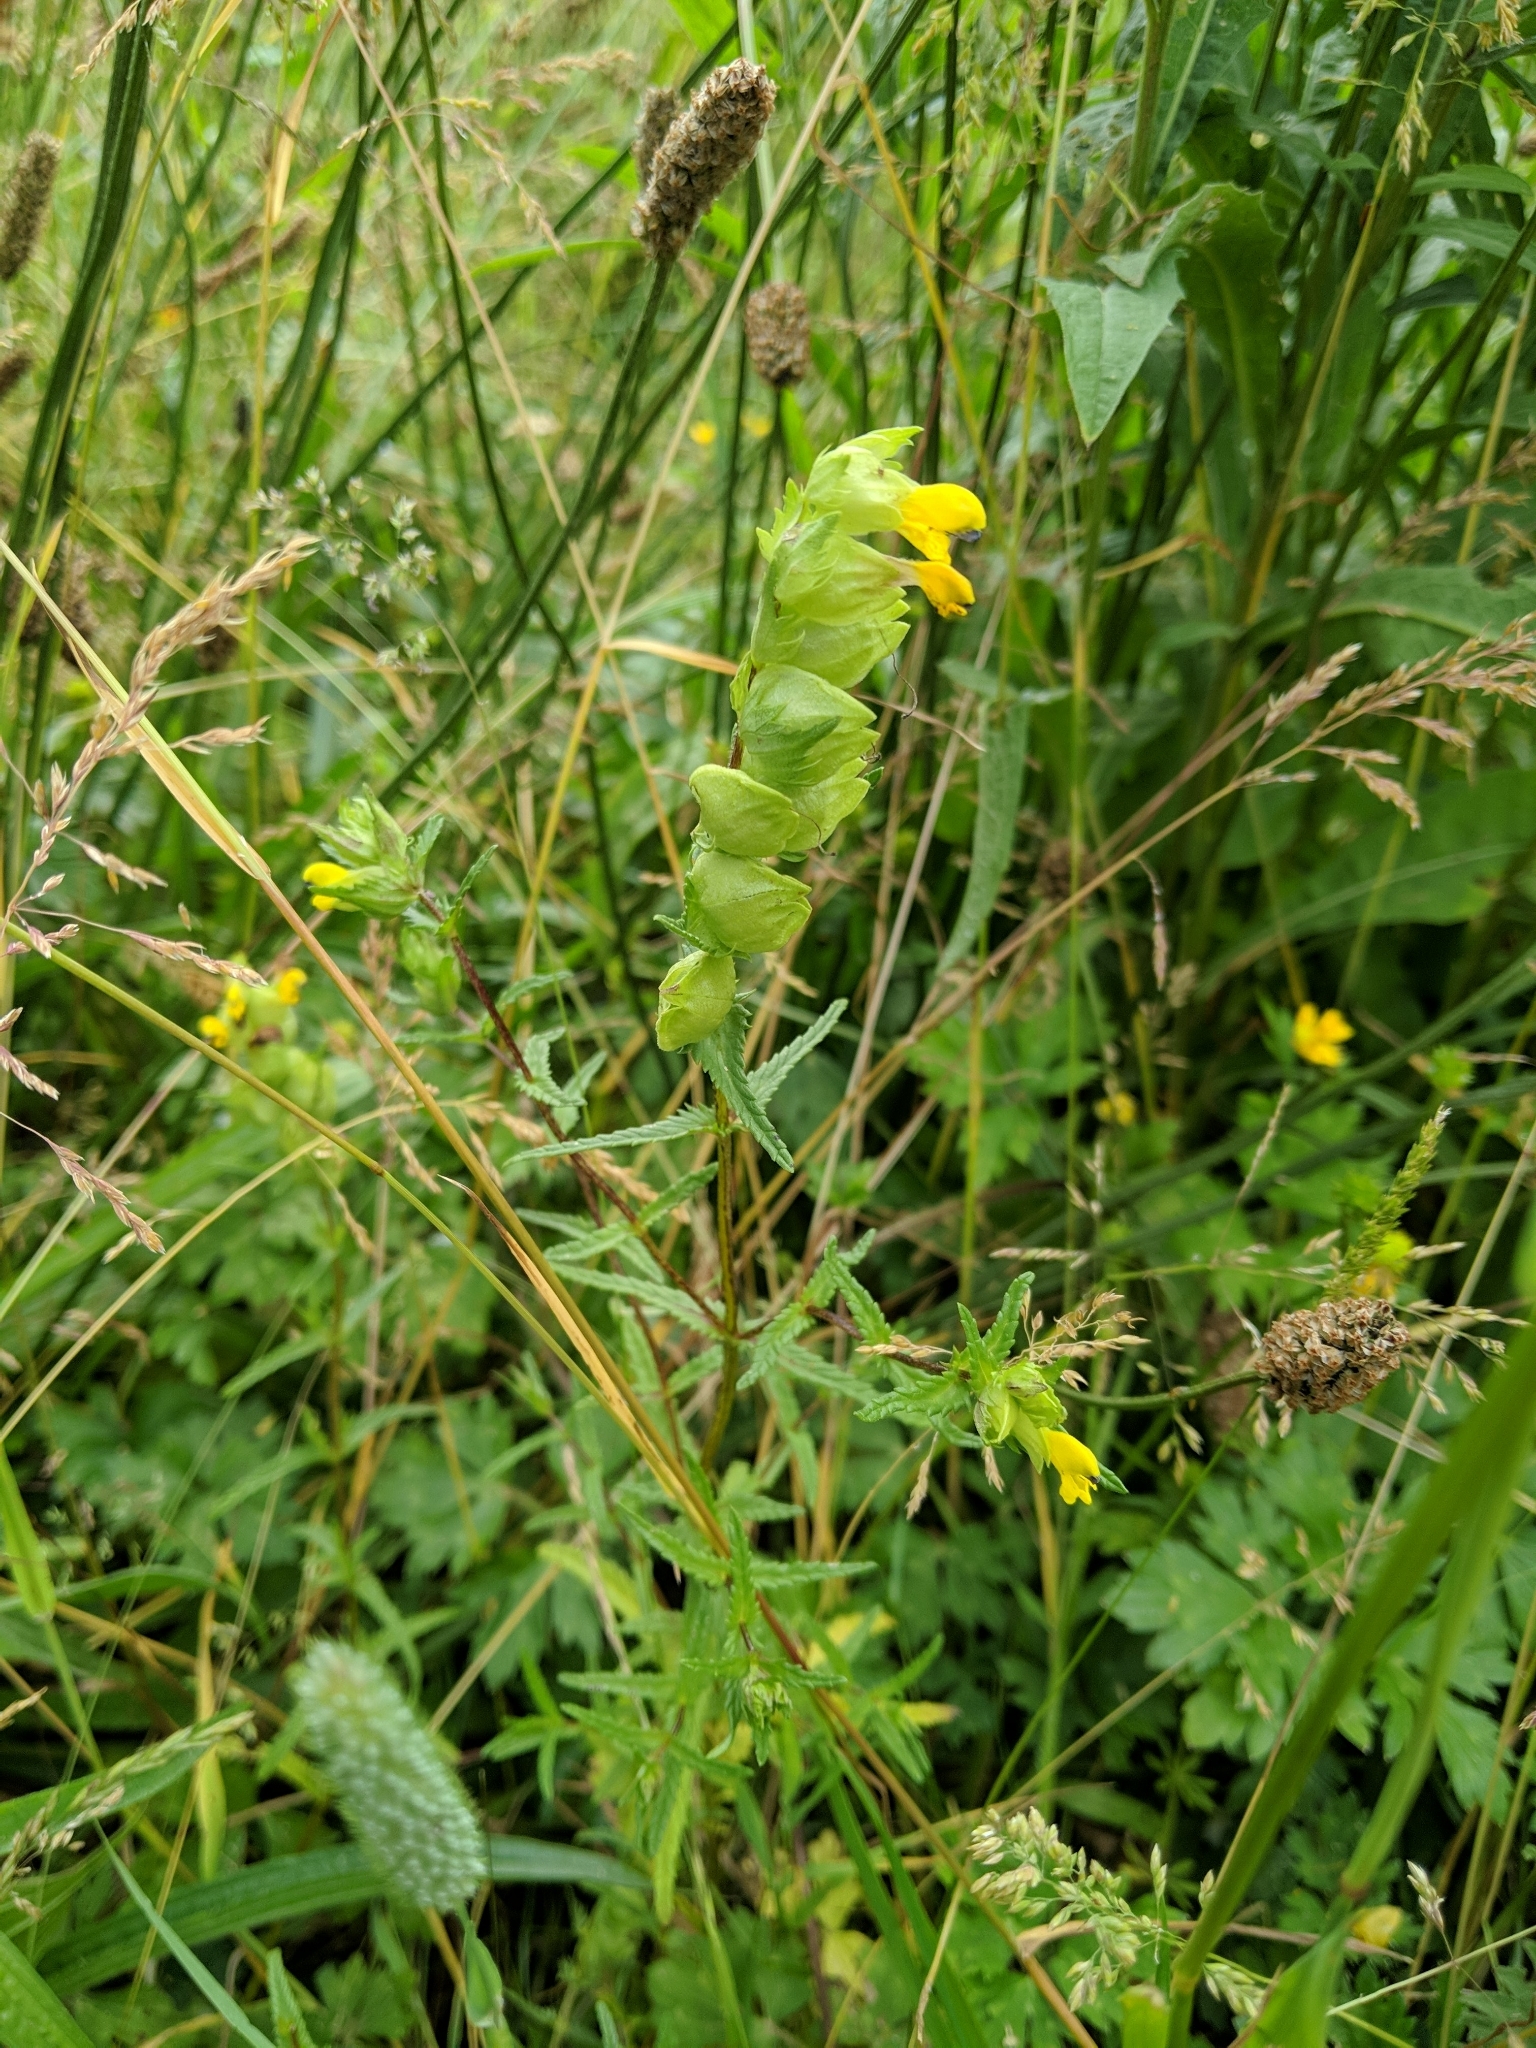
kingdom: Plantae
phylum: Tracheophyta
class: Magnoliopsida
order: Lamiales
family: Orobanchaceae
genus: Rhinanthus
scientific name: Rhinanthus minor
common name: Yellow-rattle
